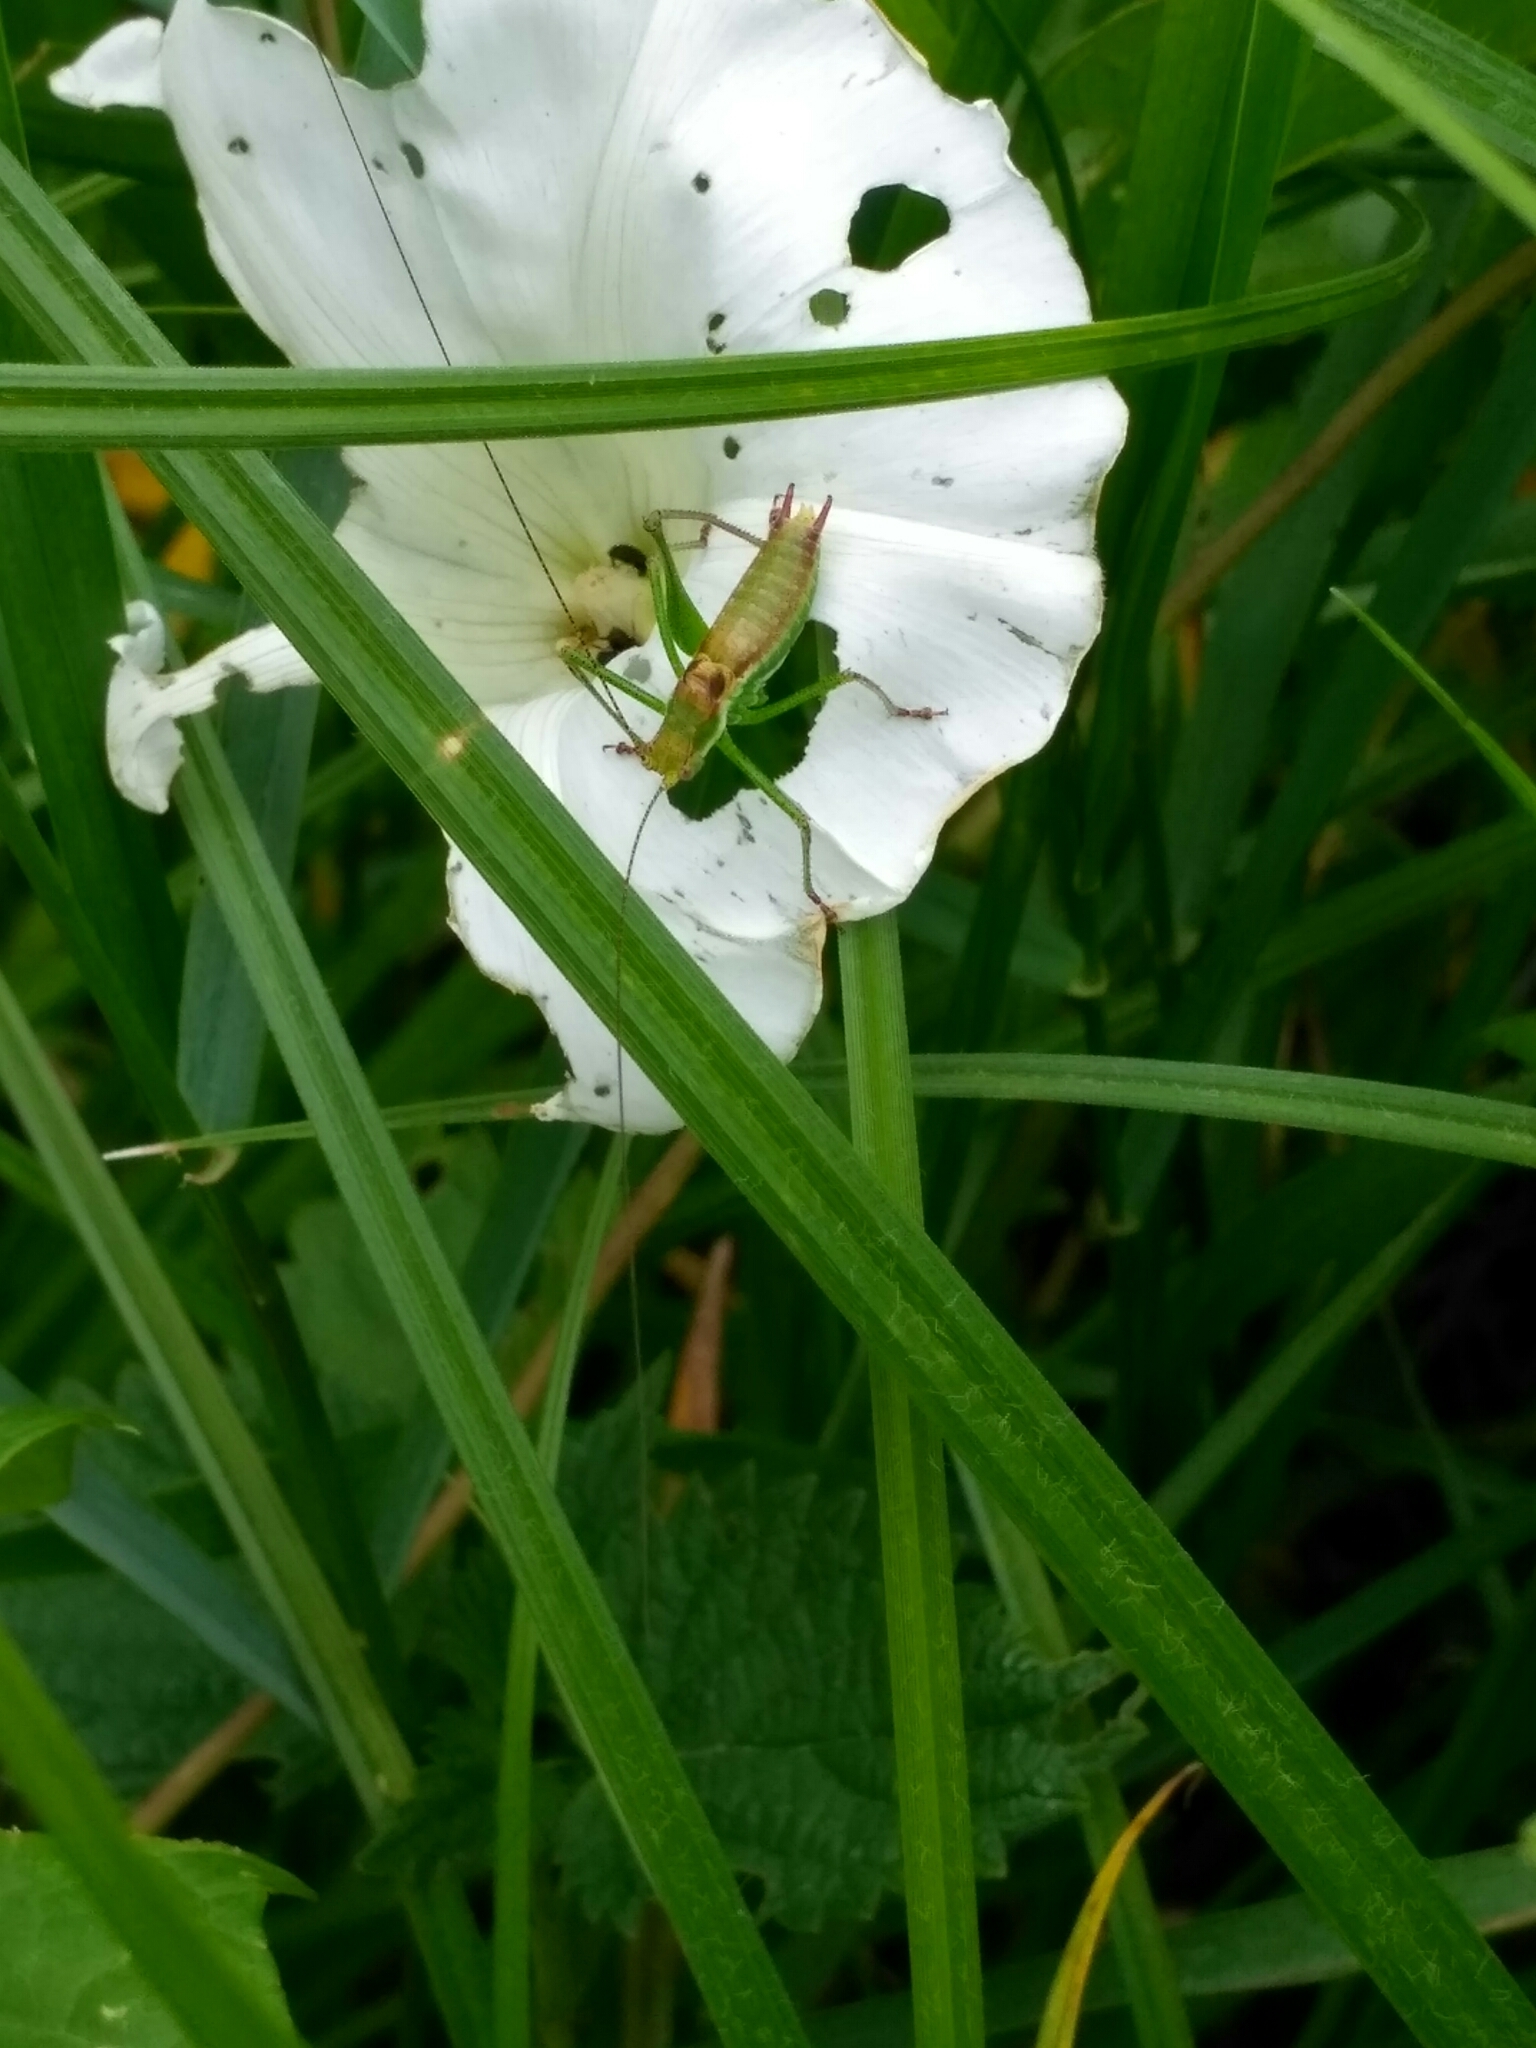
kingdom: Animalia
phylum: Arthropoda
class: Insecta
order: Orthoptera
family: Tettigoniidae
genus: Leptophyes
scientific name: Leptophyes albovittata
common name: Striped bush-cricket
